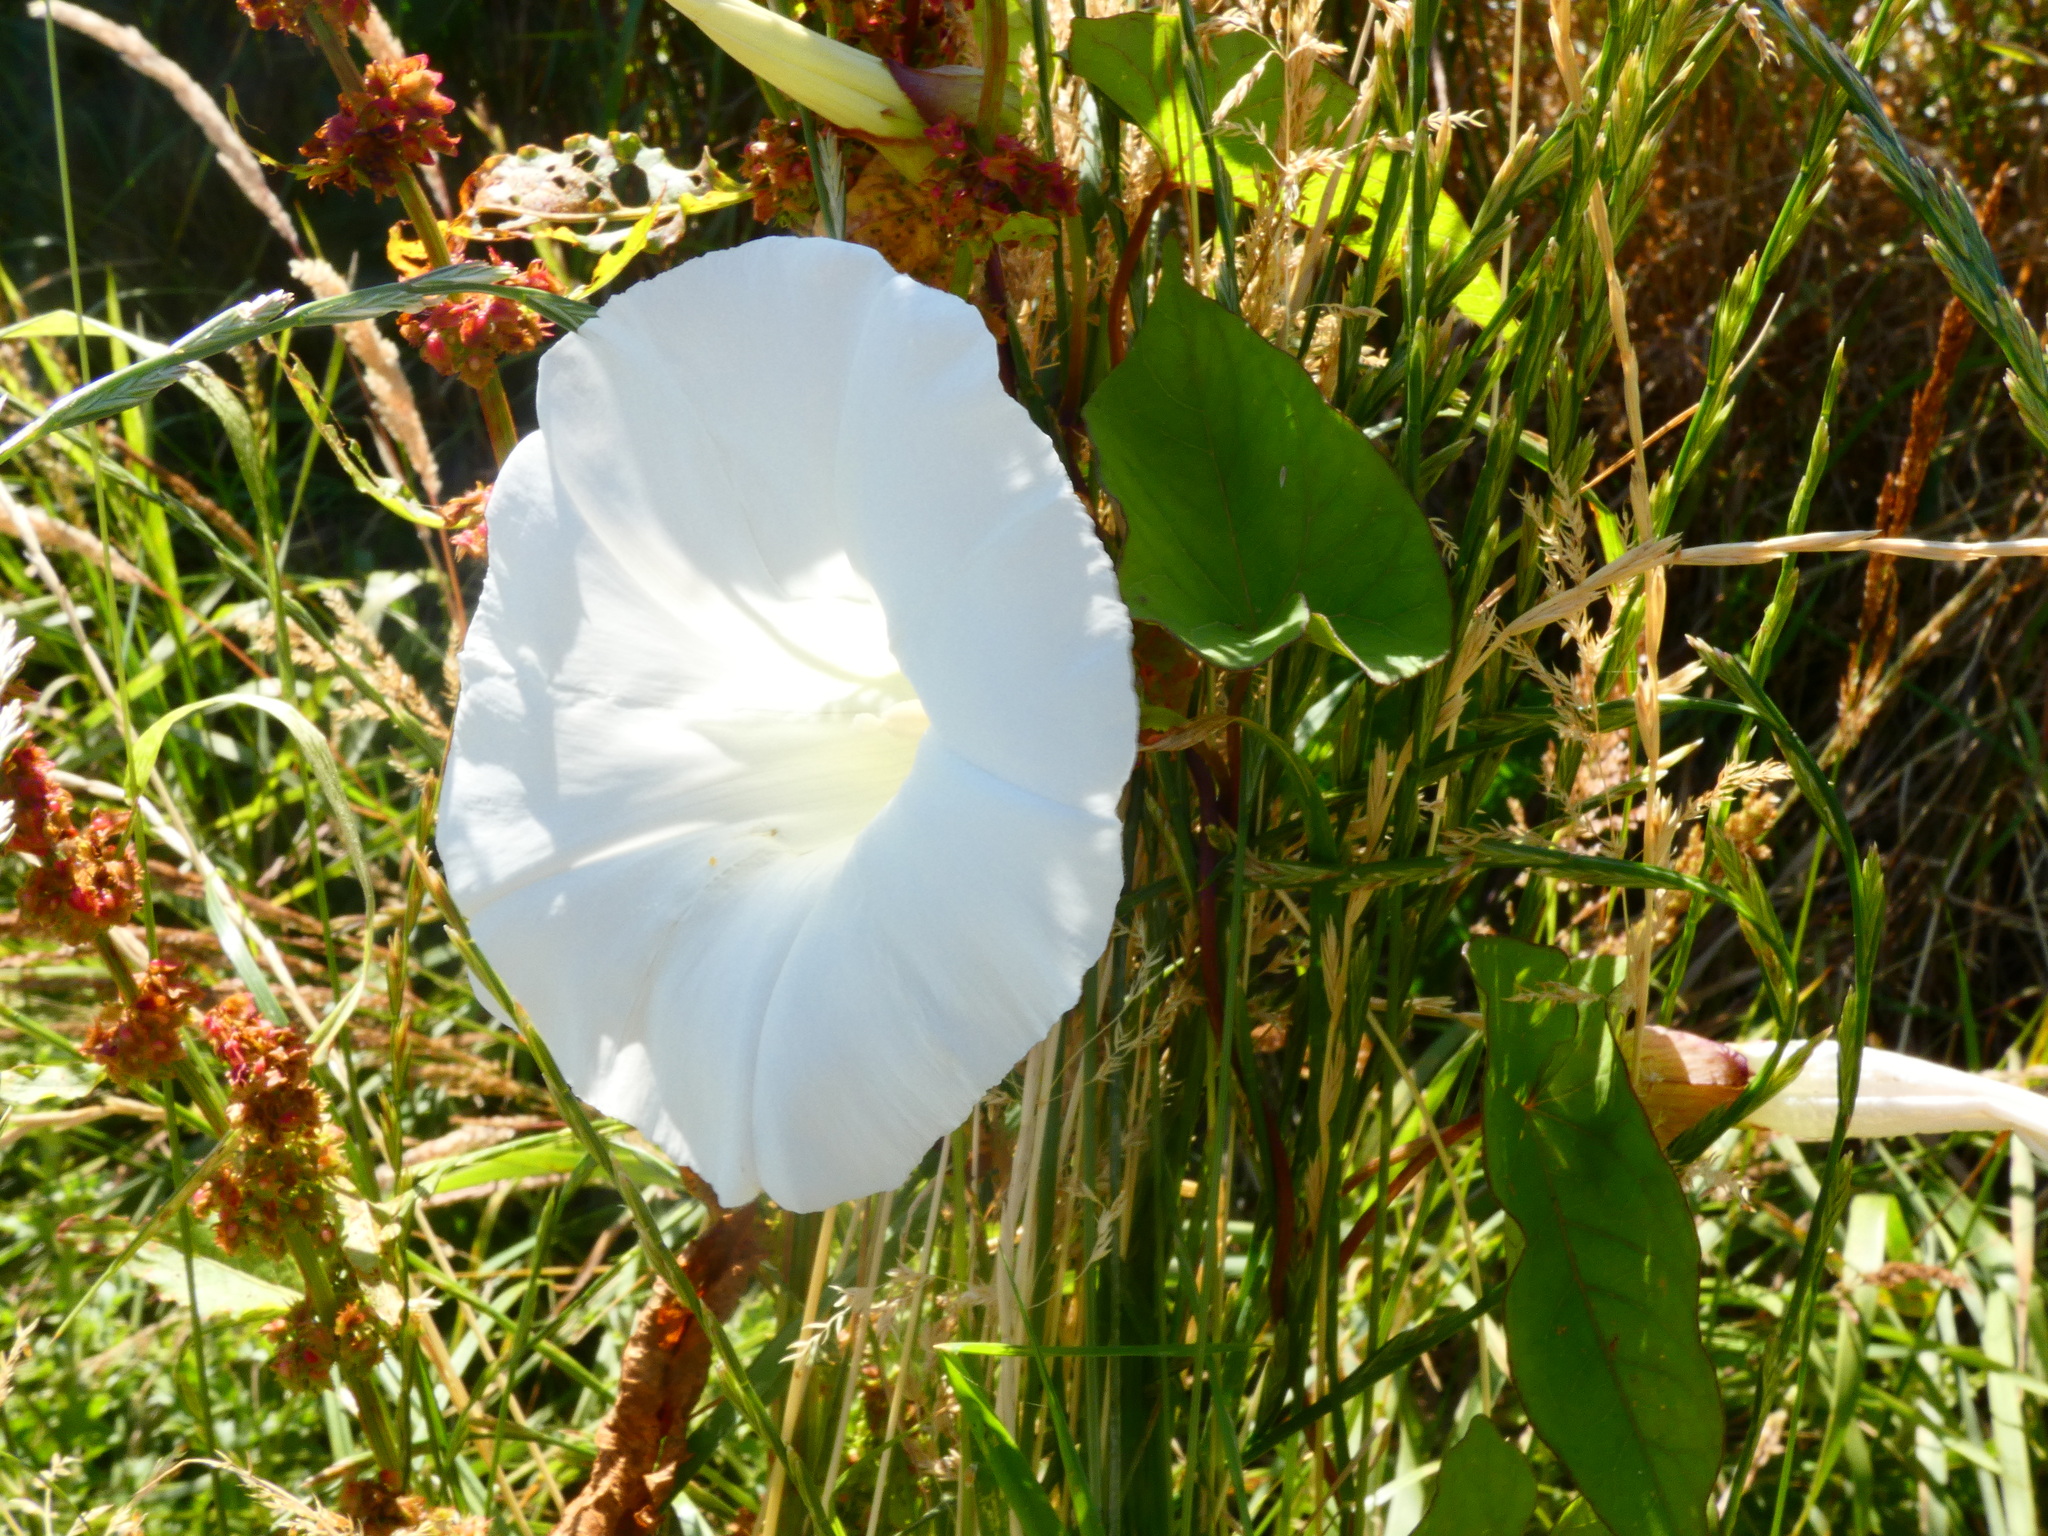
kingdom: Plantae
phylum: Tracheophyta
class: Magnoliopsida
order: Solanales
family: Convolvulaceae
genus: Calystegia
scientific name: Calystegia silvatica
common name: Large bindweed
